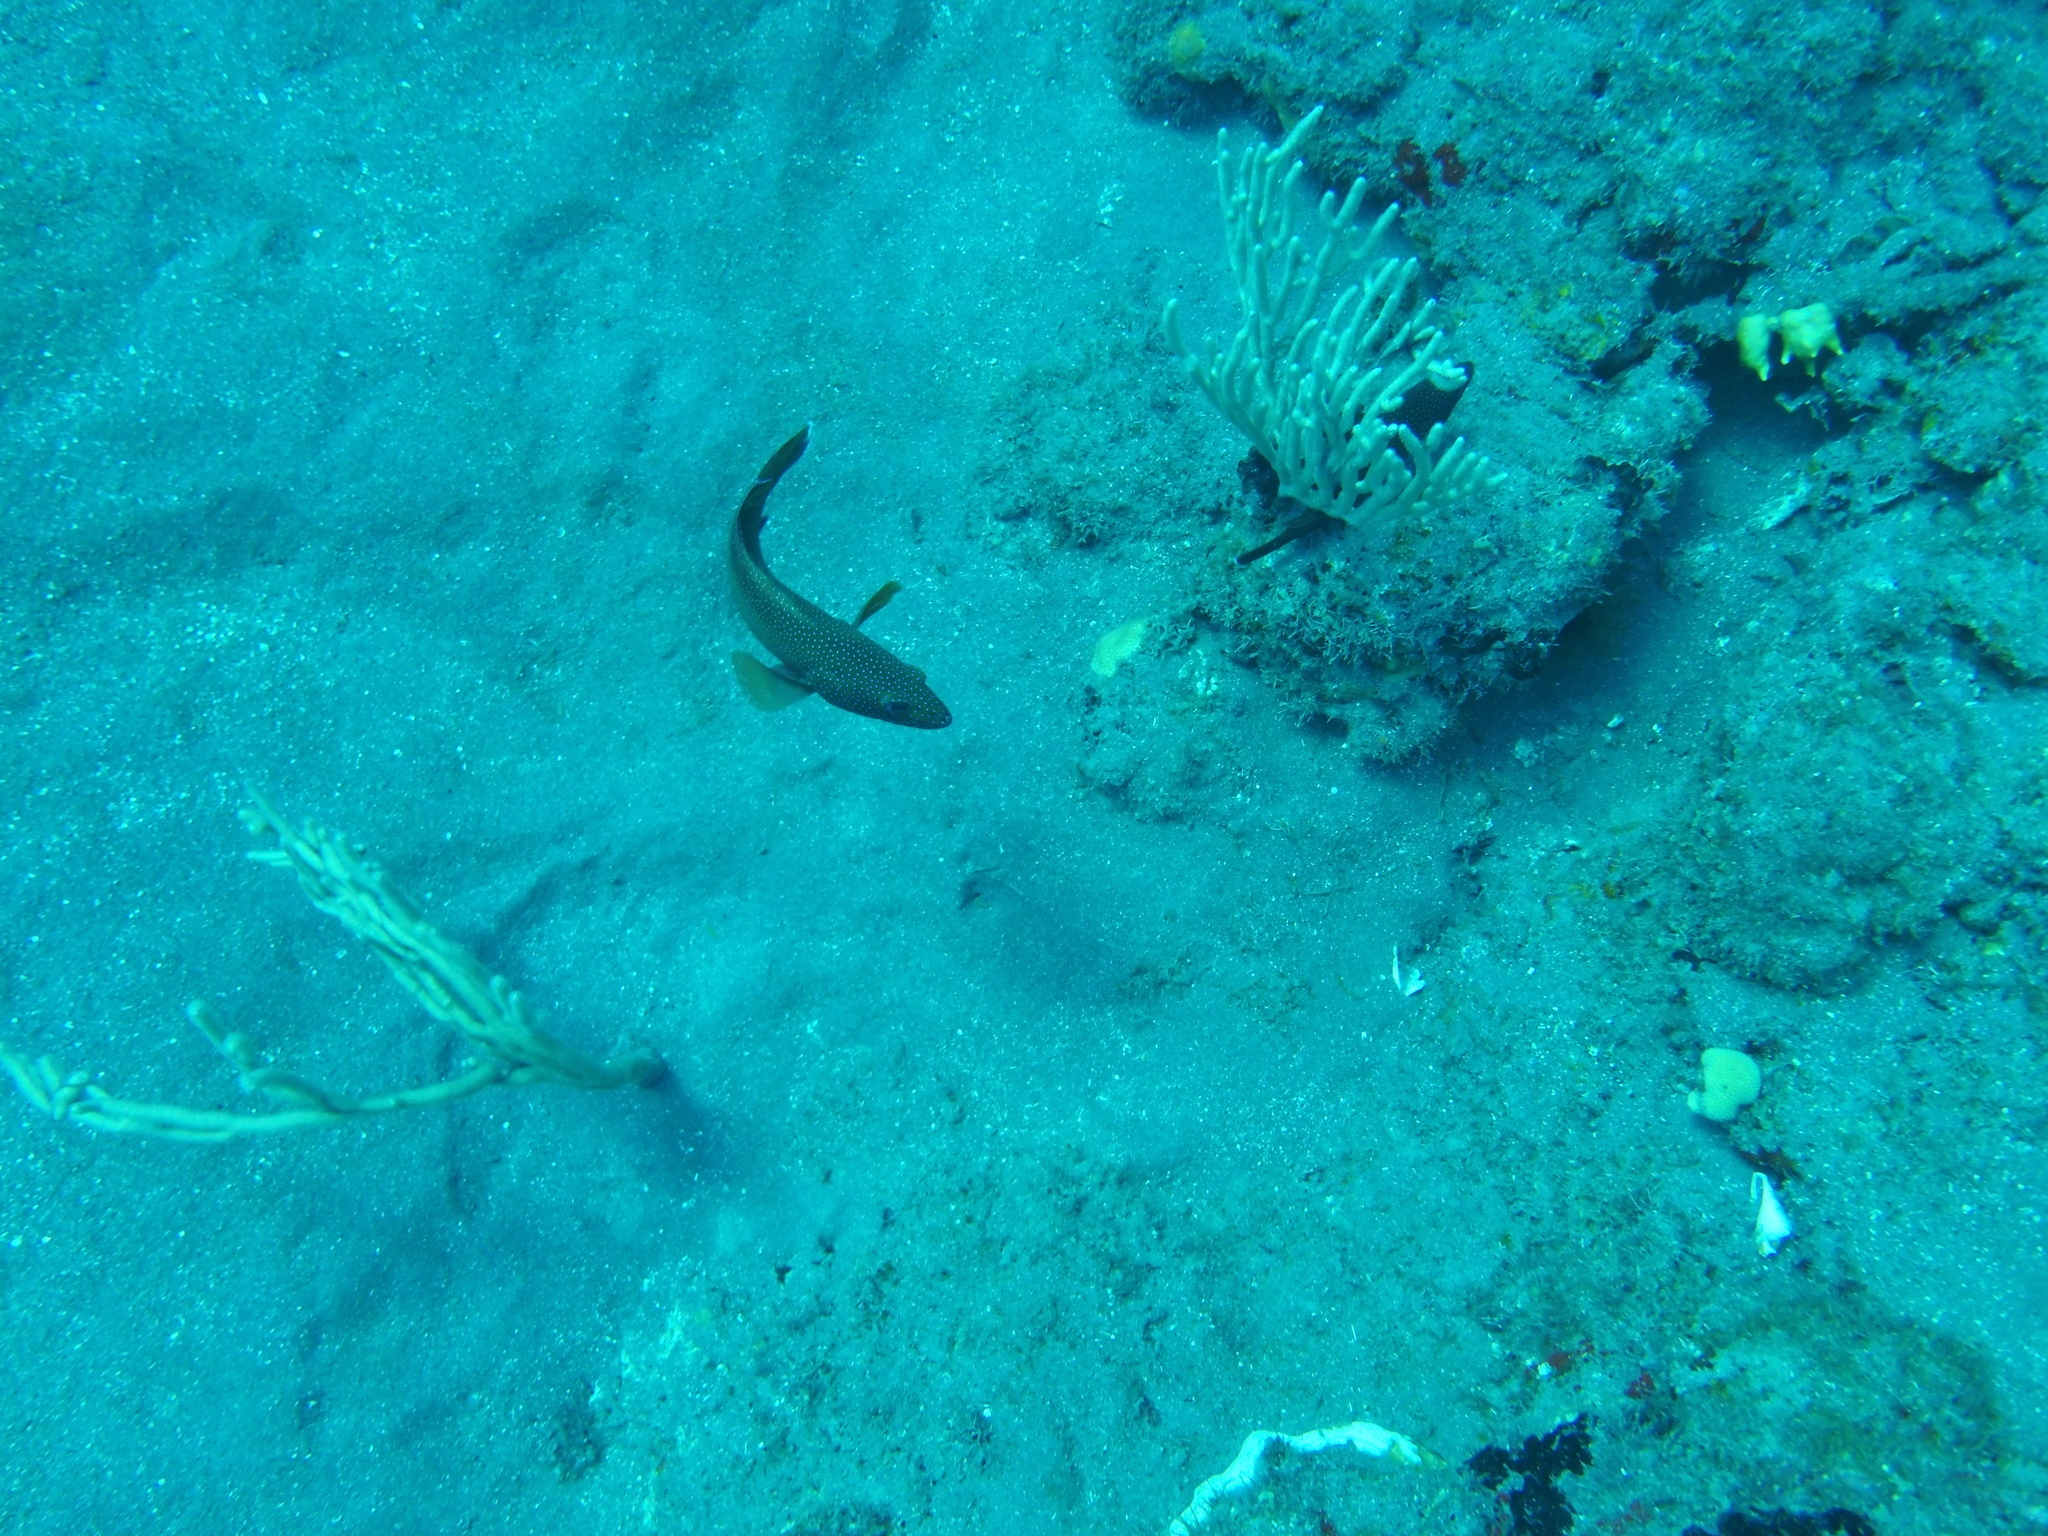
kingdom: Animalia
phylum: Chordata
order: Perciformes
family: Serranidae
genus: Cephalopholis
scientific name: Cephalopholis fulva
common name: Butterfish
